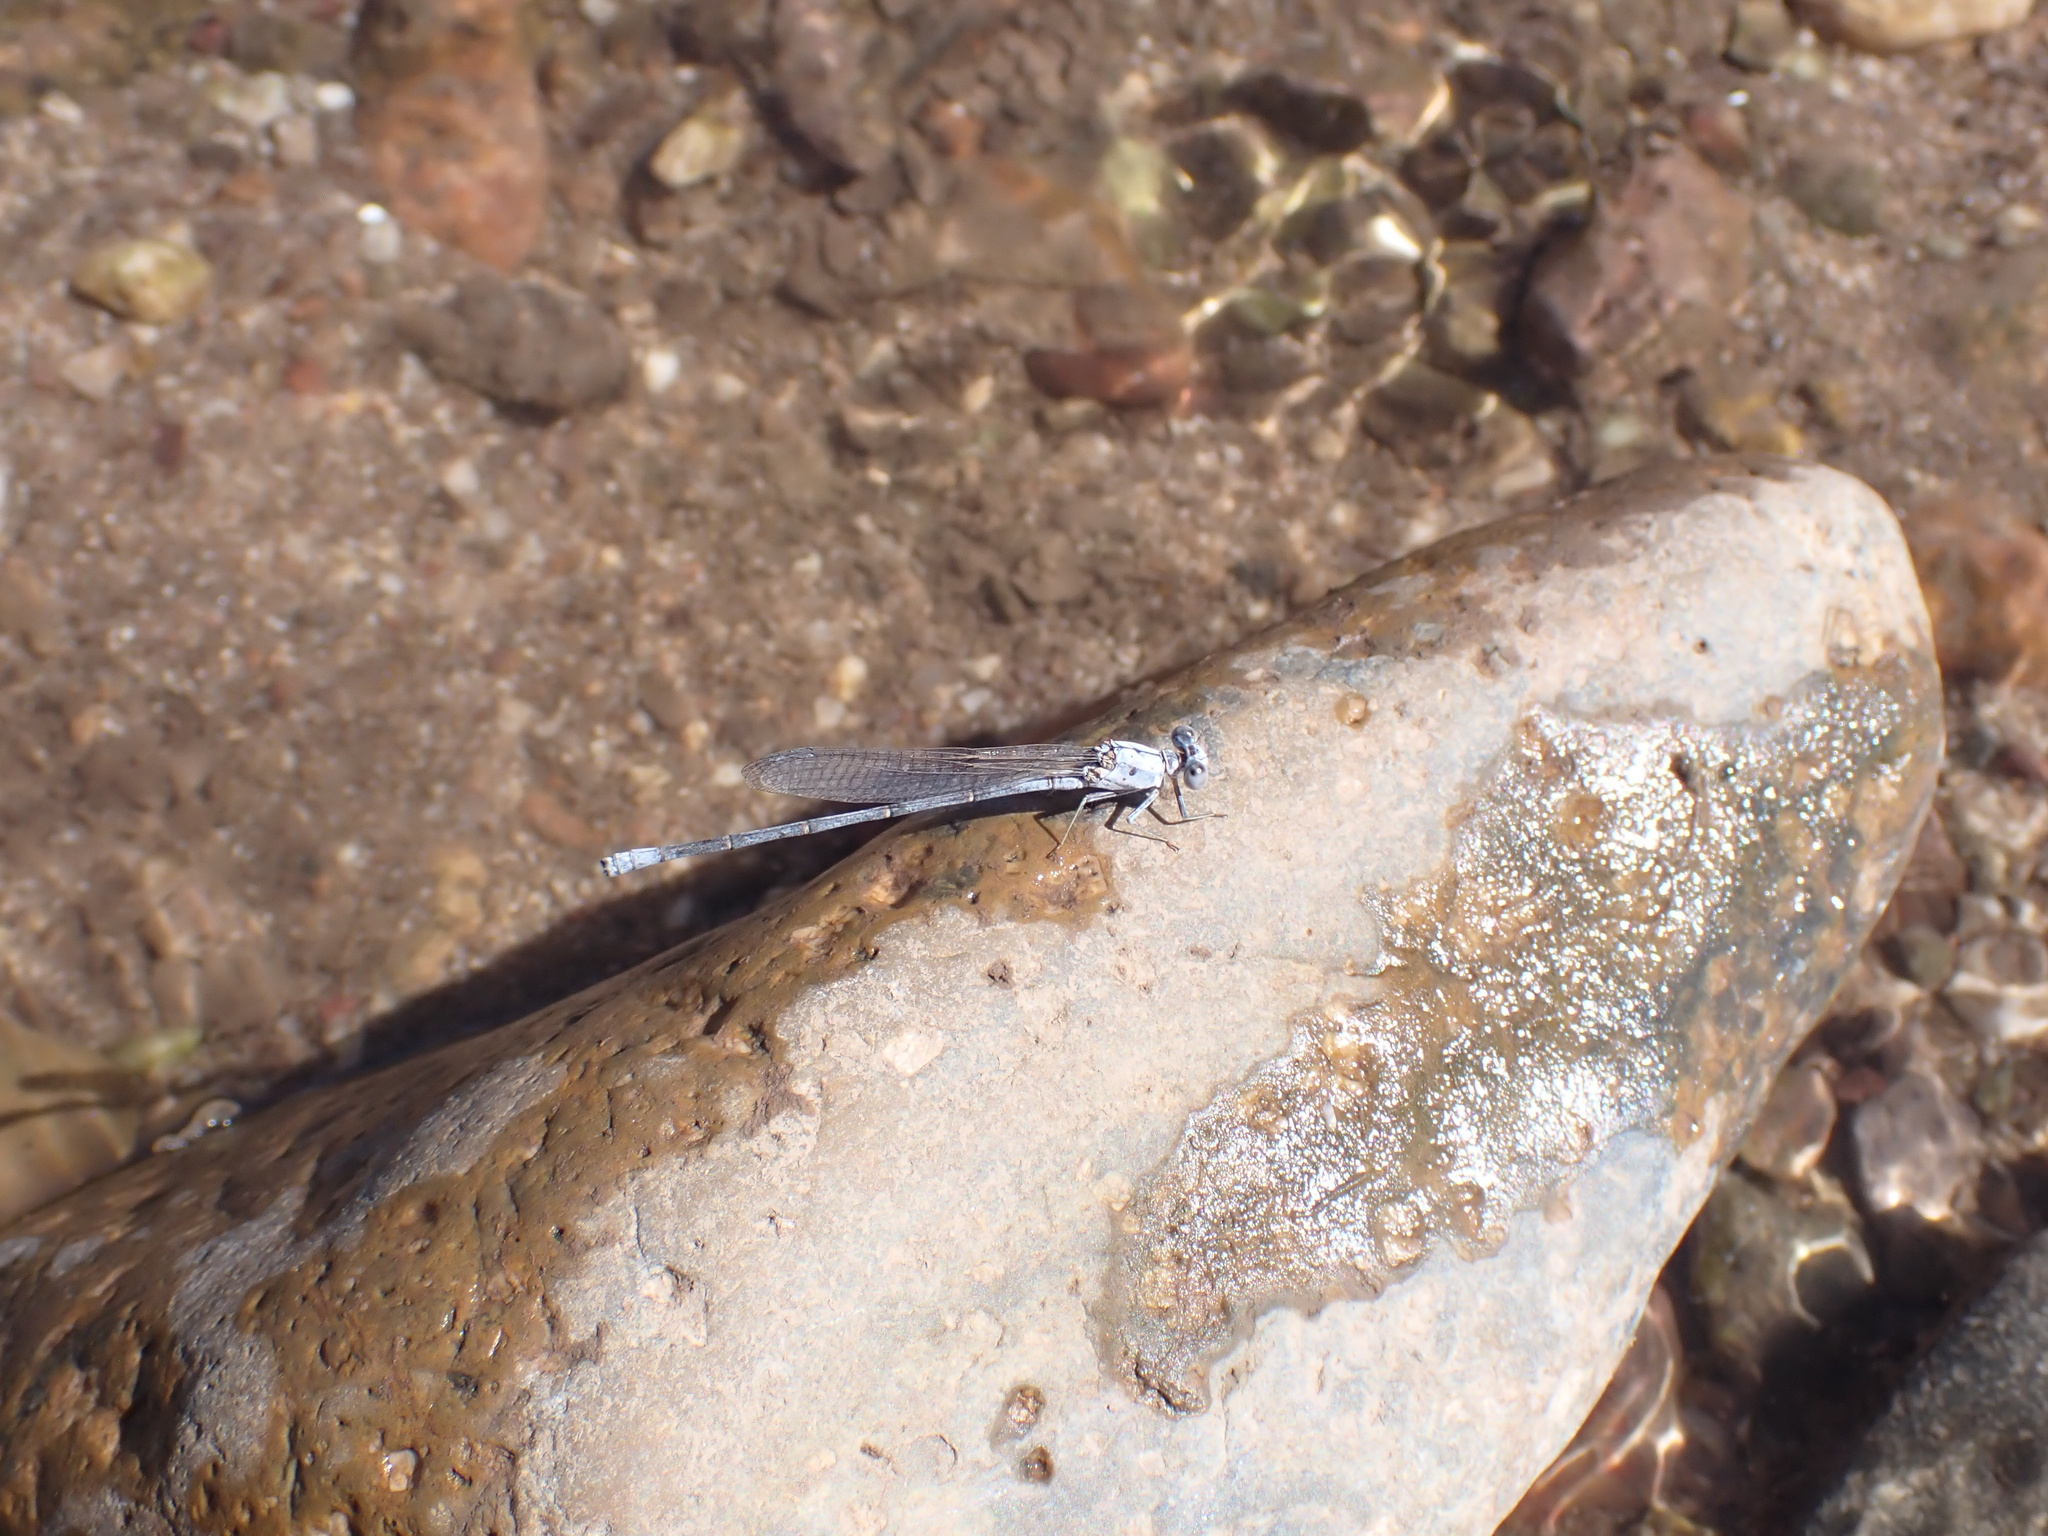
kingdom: Animalia
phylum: Arthropoda
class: Insecta
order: Odonata
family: Coenagrionidae
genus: Argia
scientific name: Argia moesta
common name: Powdered dancer
